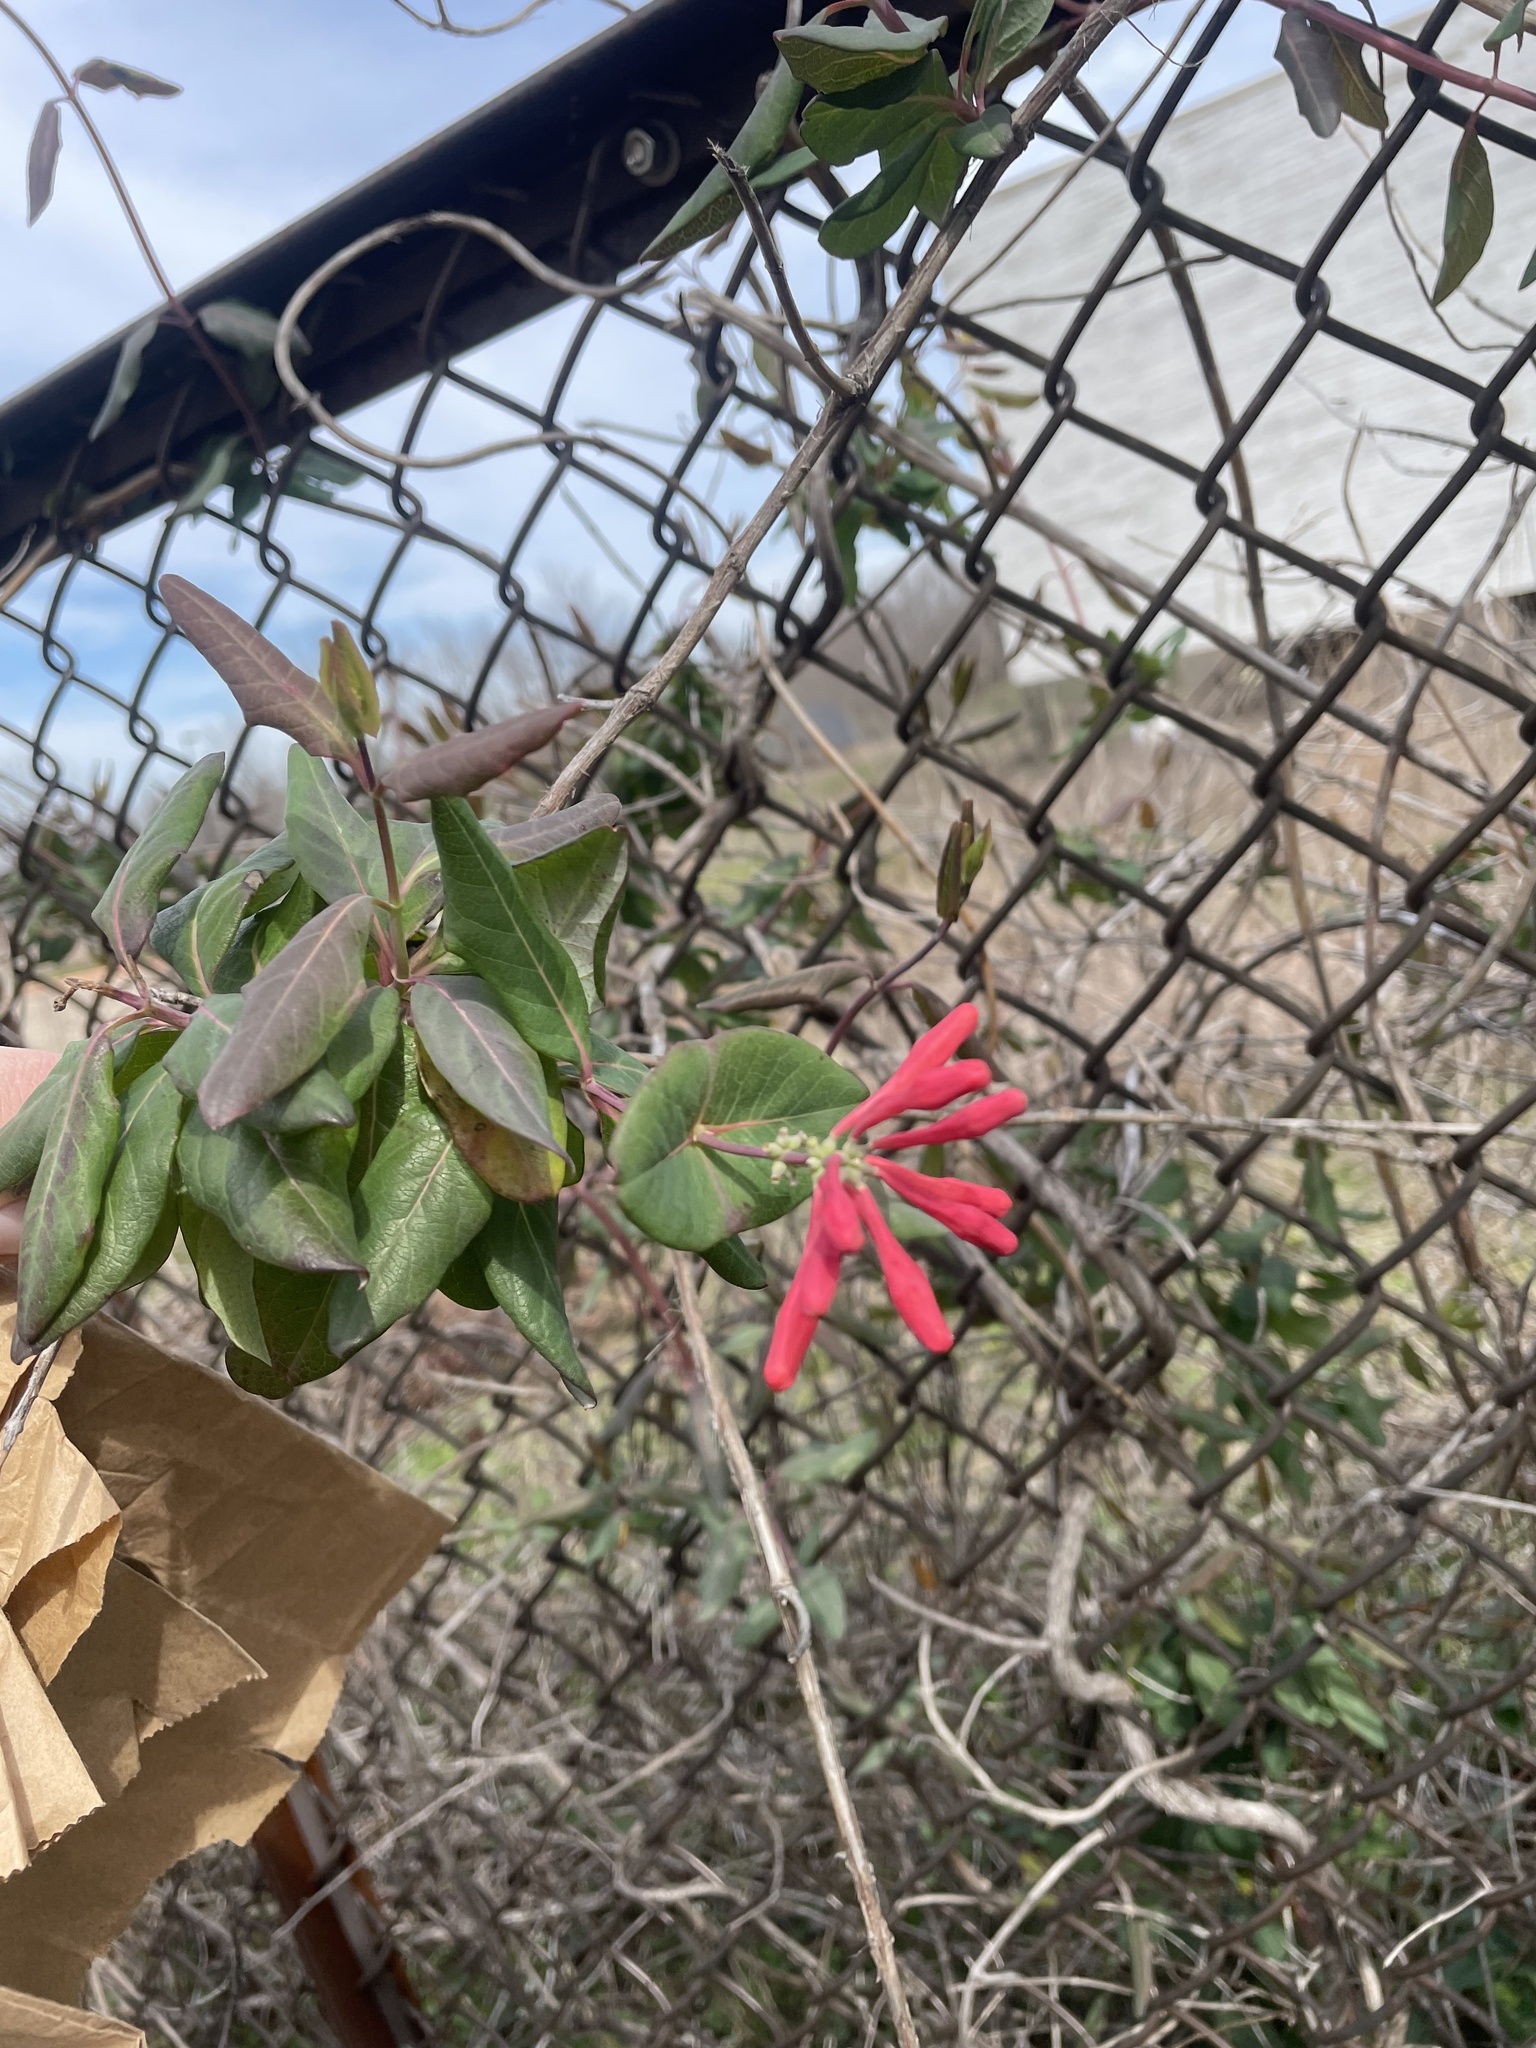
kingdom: Plantae
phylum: Tracheophyta
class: Magnoliopsida
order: Dipsacales
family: Caprifoliaceae
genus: Lonicera
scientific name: Lonicera sempervirens
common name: Coral honeysuckle
